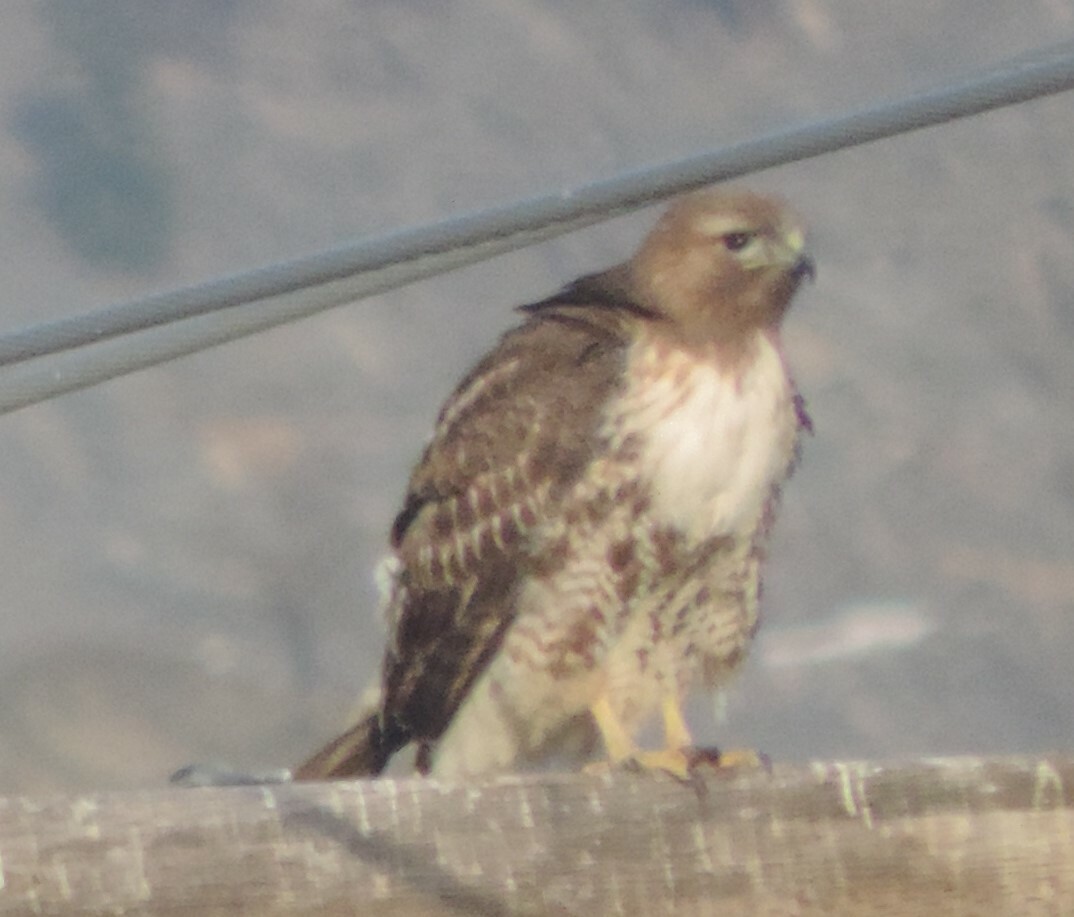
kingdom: Animalia
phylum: Chordata
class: Aves
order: Accipitriformes
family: Accipitridae
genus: Buteo
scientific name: Buteo jamaicensis
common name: Red-tailed hawk
